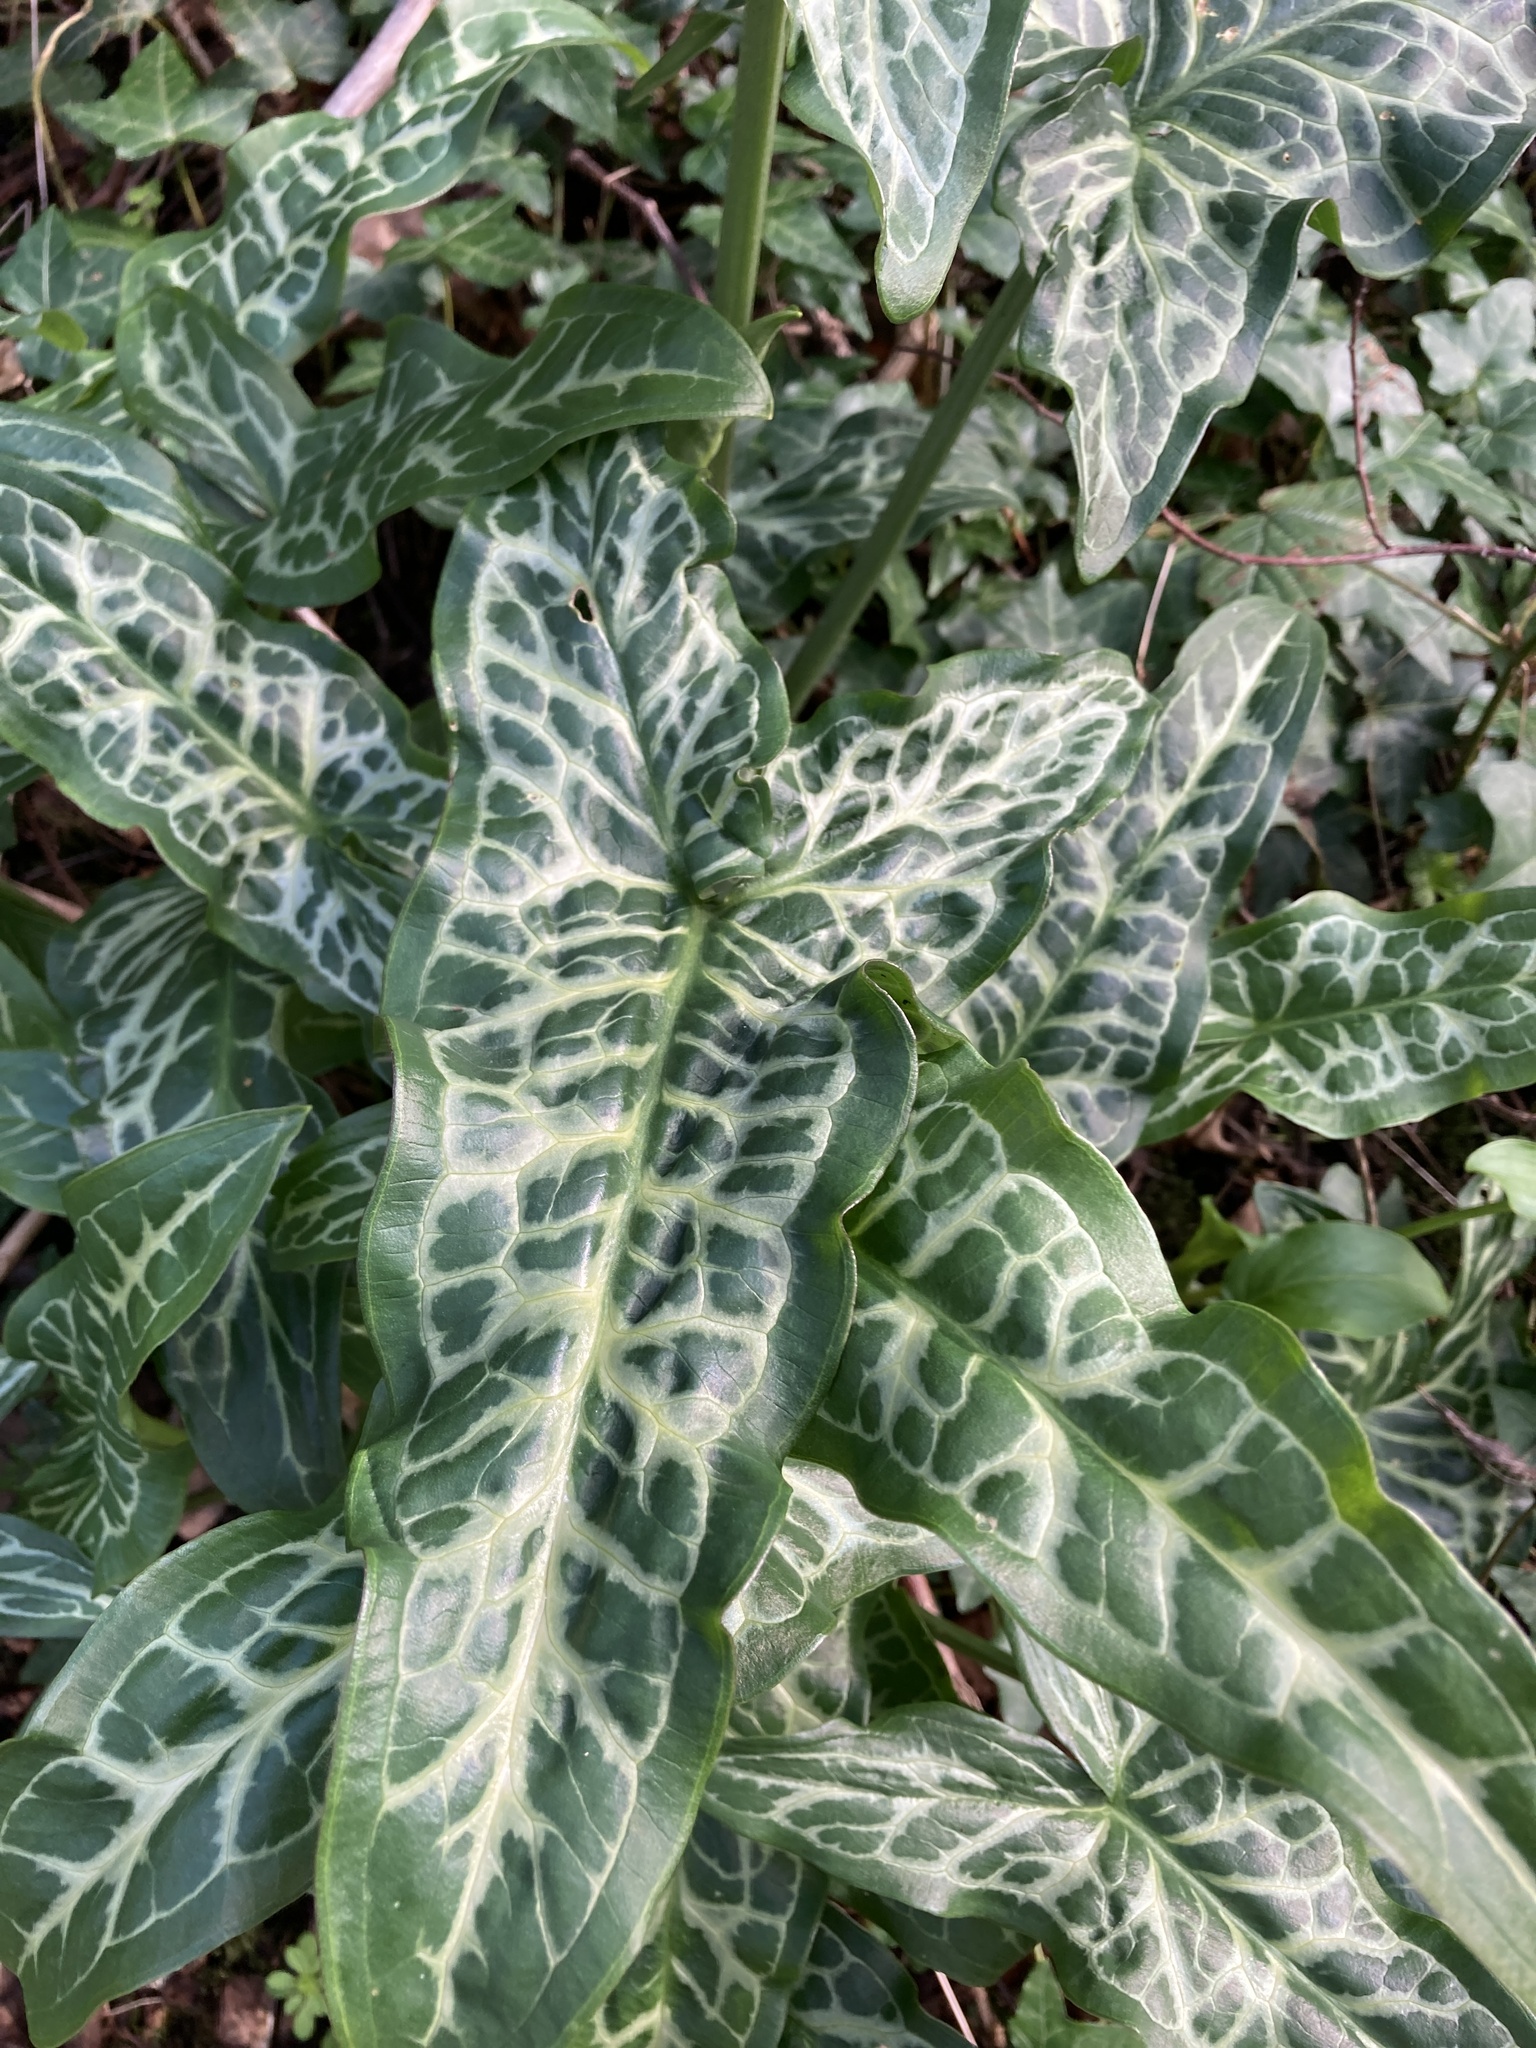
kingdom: Plantae
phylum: Tracheophyta
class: Liliopsida
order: Alismatales
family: Araceae
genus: Arum
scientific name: Arum italicum
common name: Italian lords-and-ladies
